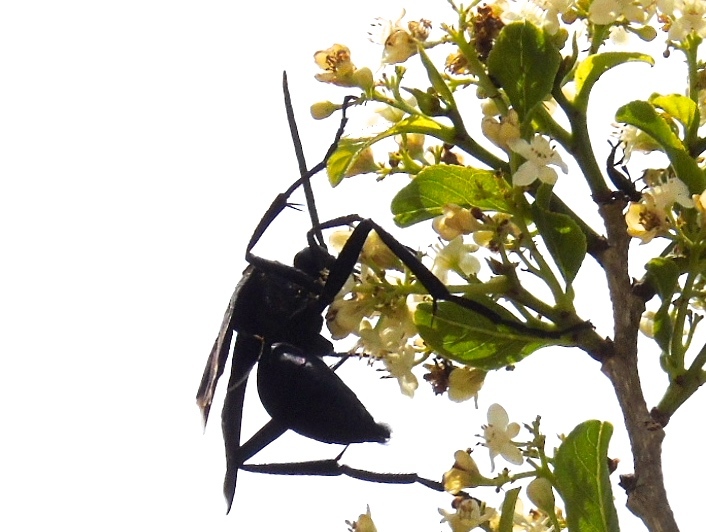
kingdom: Animalia
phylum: Arthropoda
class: Insecta
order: Hymenoptera
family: Pompilidae
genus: Pepsis
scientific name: Pepsis mexicana
